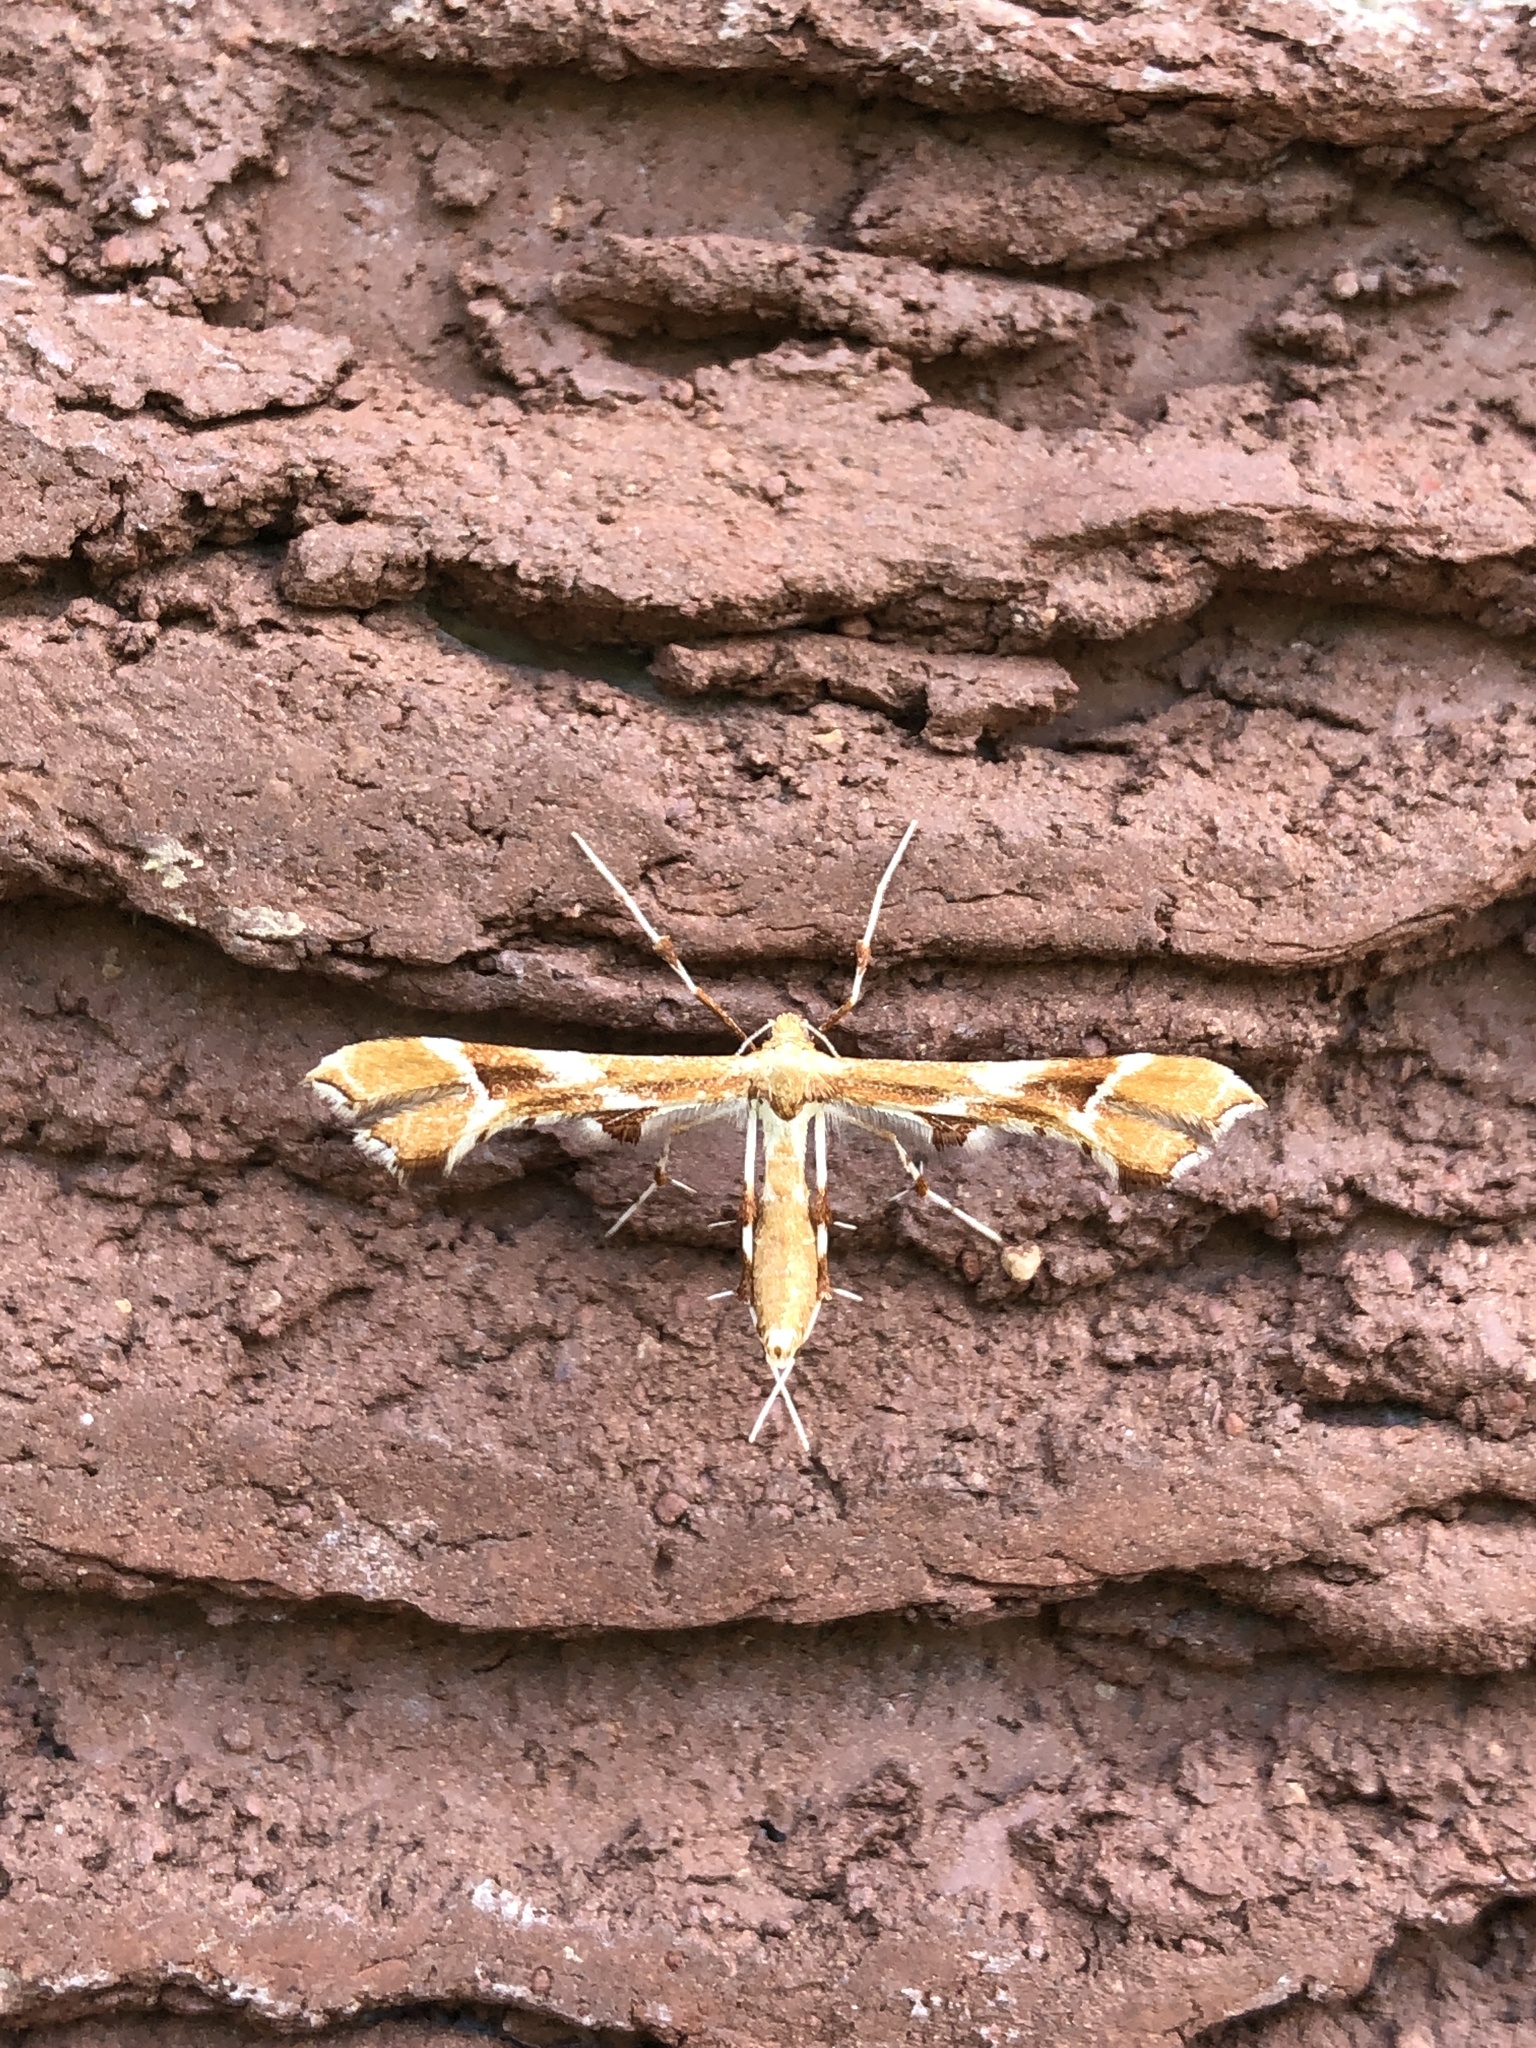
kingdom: Animalia
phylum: Arthropoda
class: Insecta
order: Lepidoptera
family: Pterophoridae
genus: Cnaemidophorus
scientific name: Cnaemidophorus rhododactyla
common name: Rose plume
